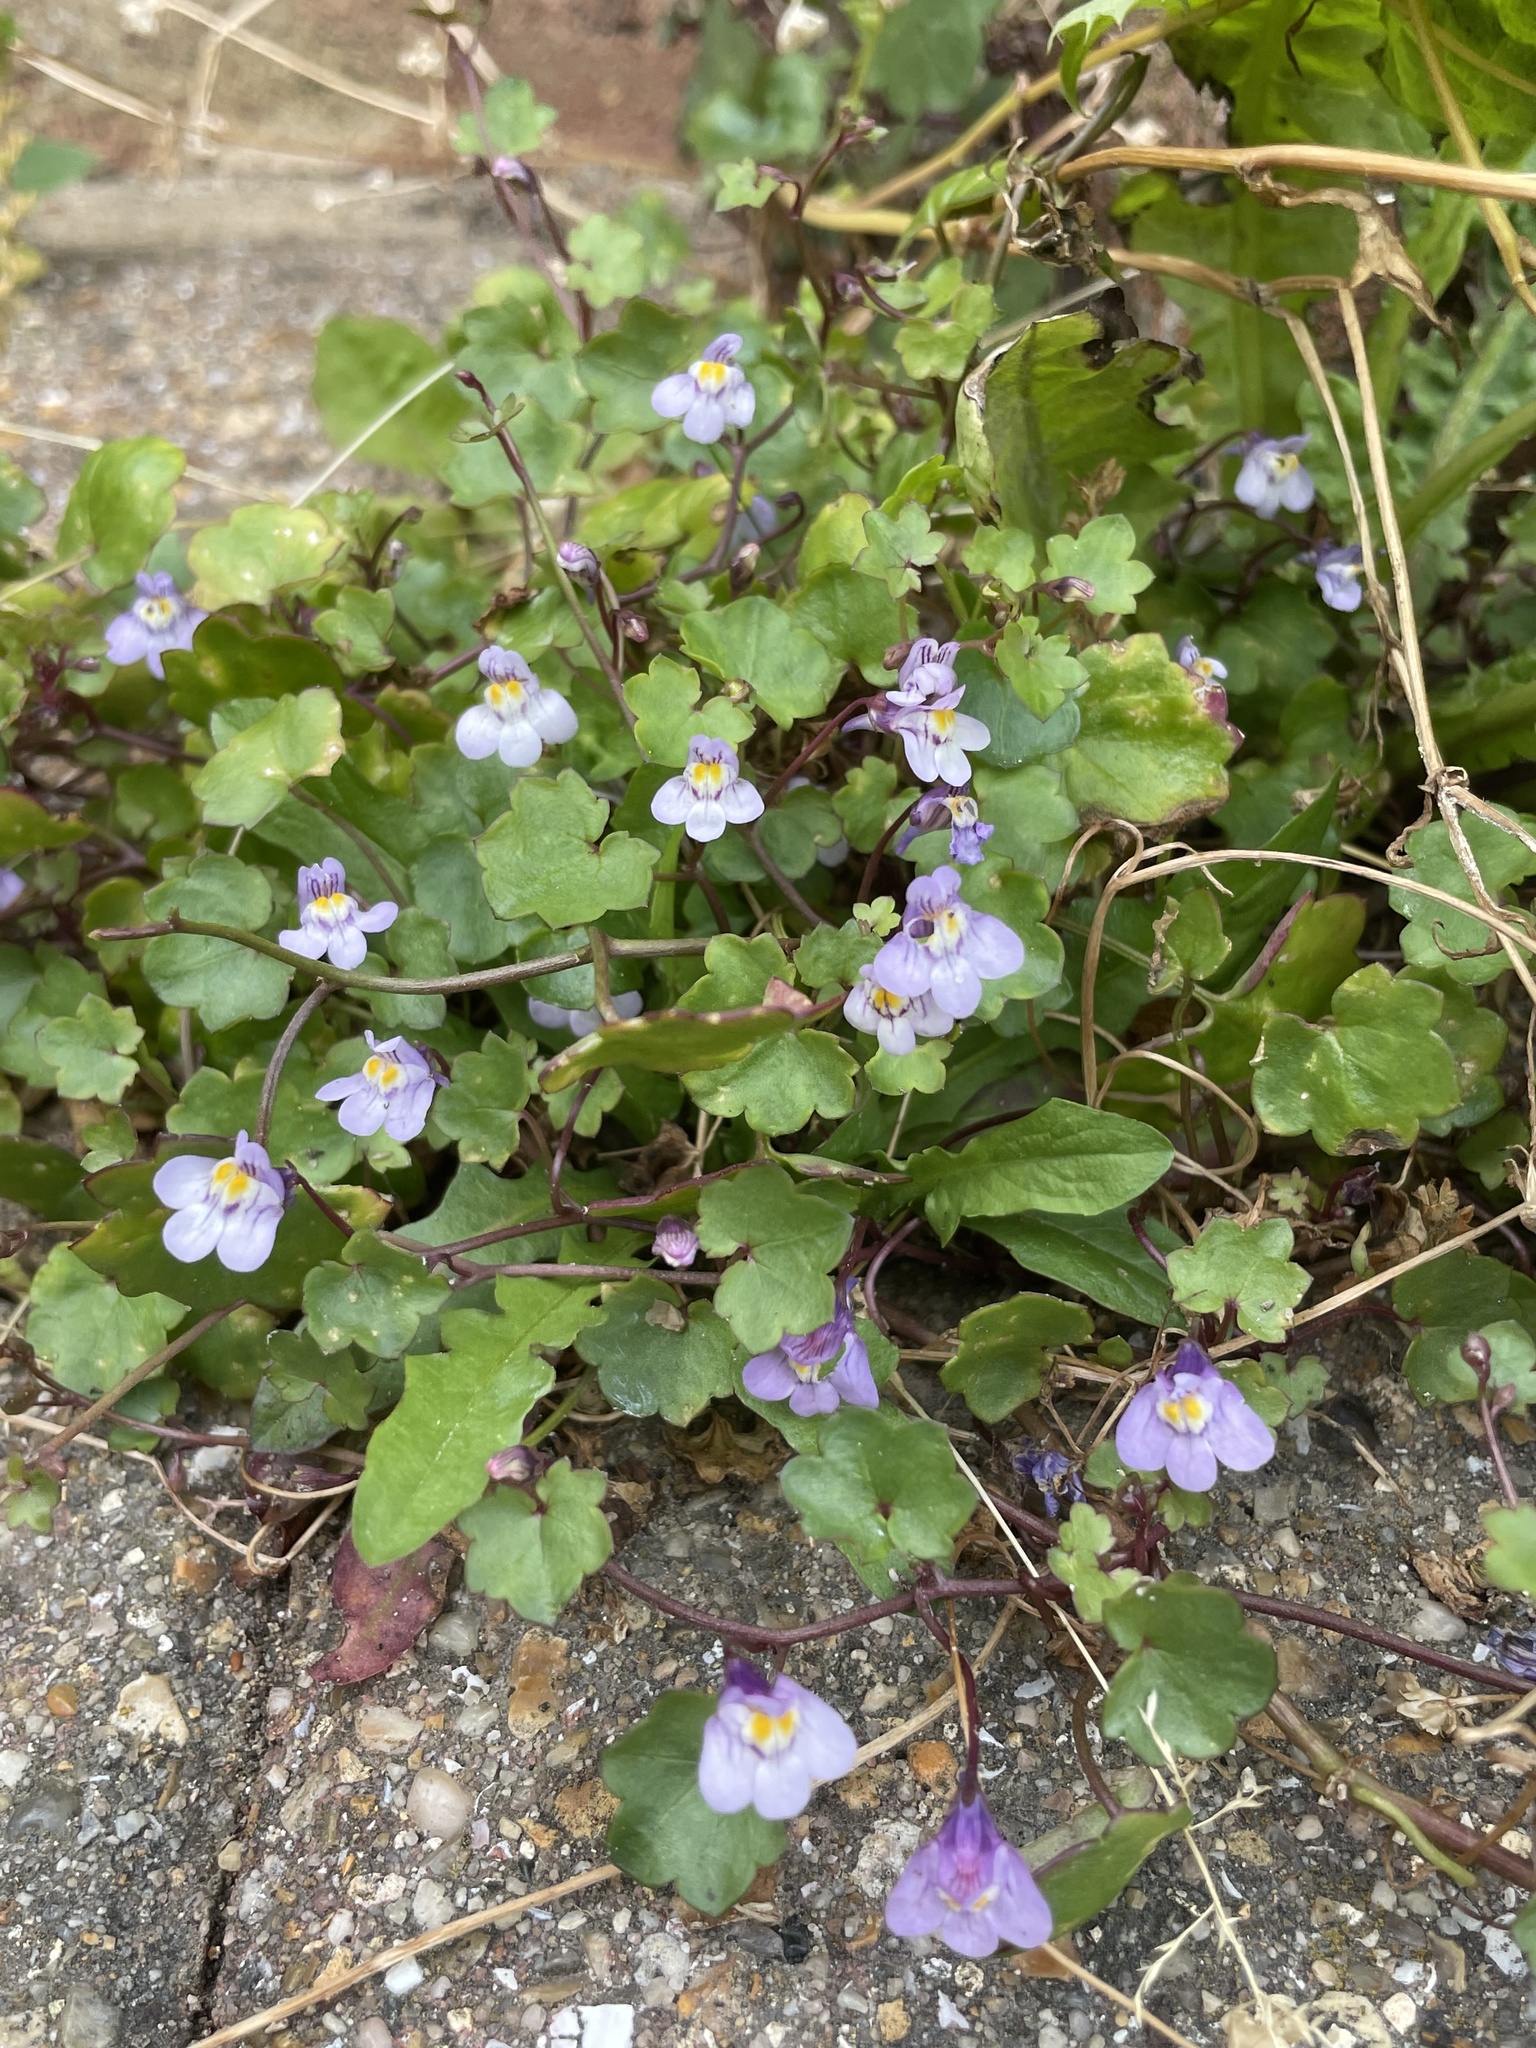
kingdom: Plantae
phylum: Tracheophyta
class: Magnoliopsida
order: Lamiales
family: Plantaginaceae
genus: Cymbalaria
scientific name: Cymbalaria muralis
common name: Ivy-leaved toadflax
